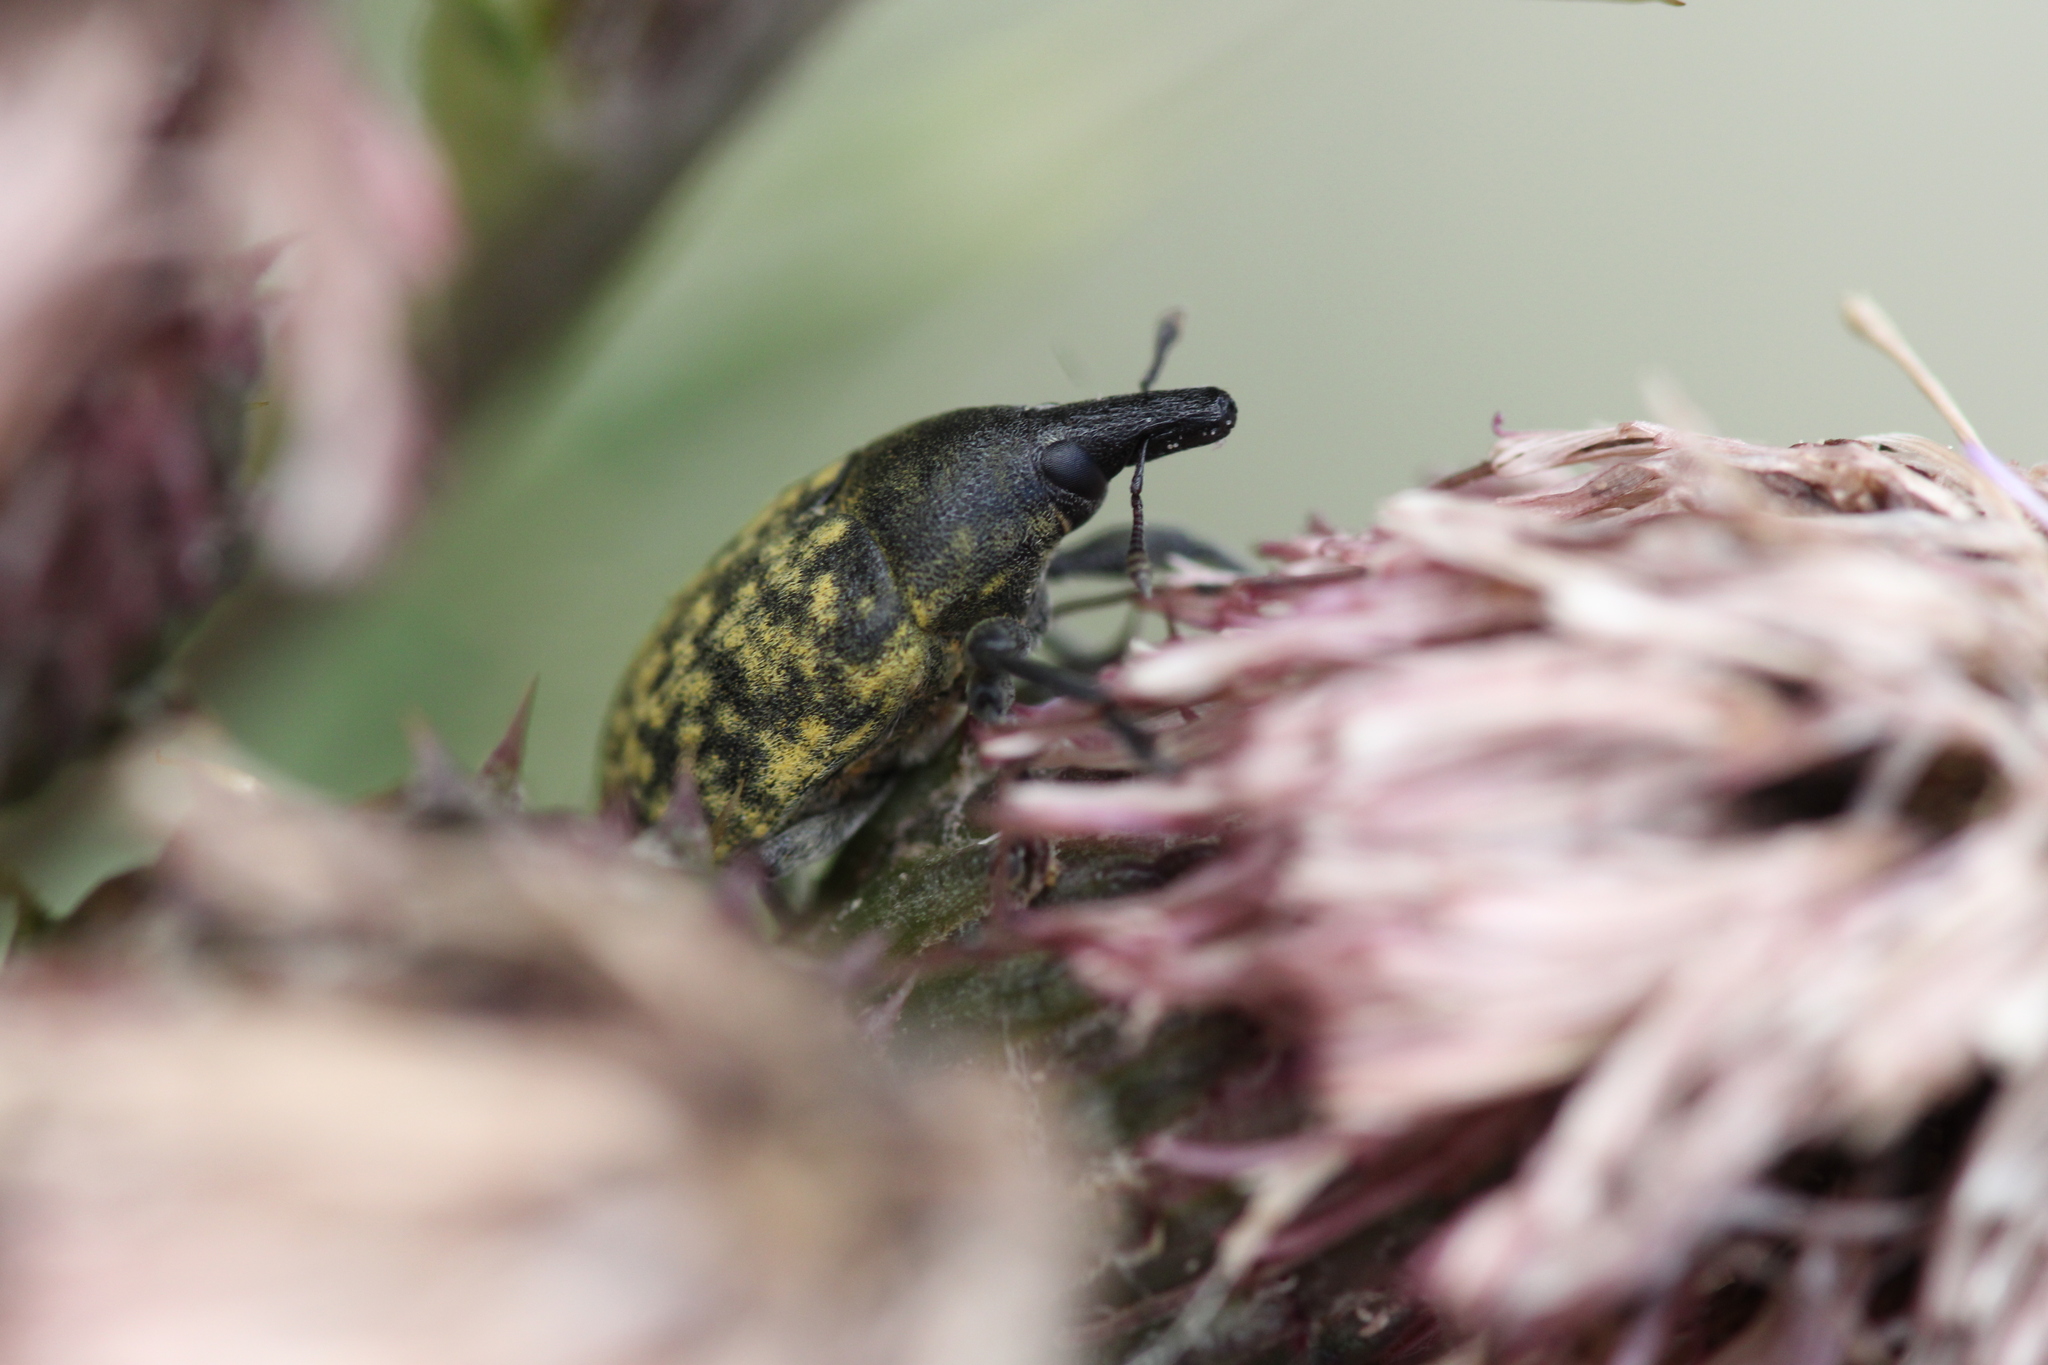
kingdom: Animalia
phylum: Arthropoda
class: Insecta
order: Coleoptera
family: Curculionidae
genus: Larinus
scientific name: Larinus turbinatus
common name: Weevil
